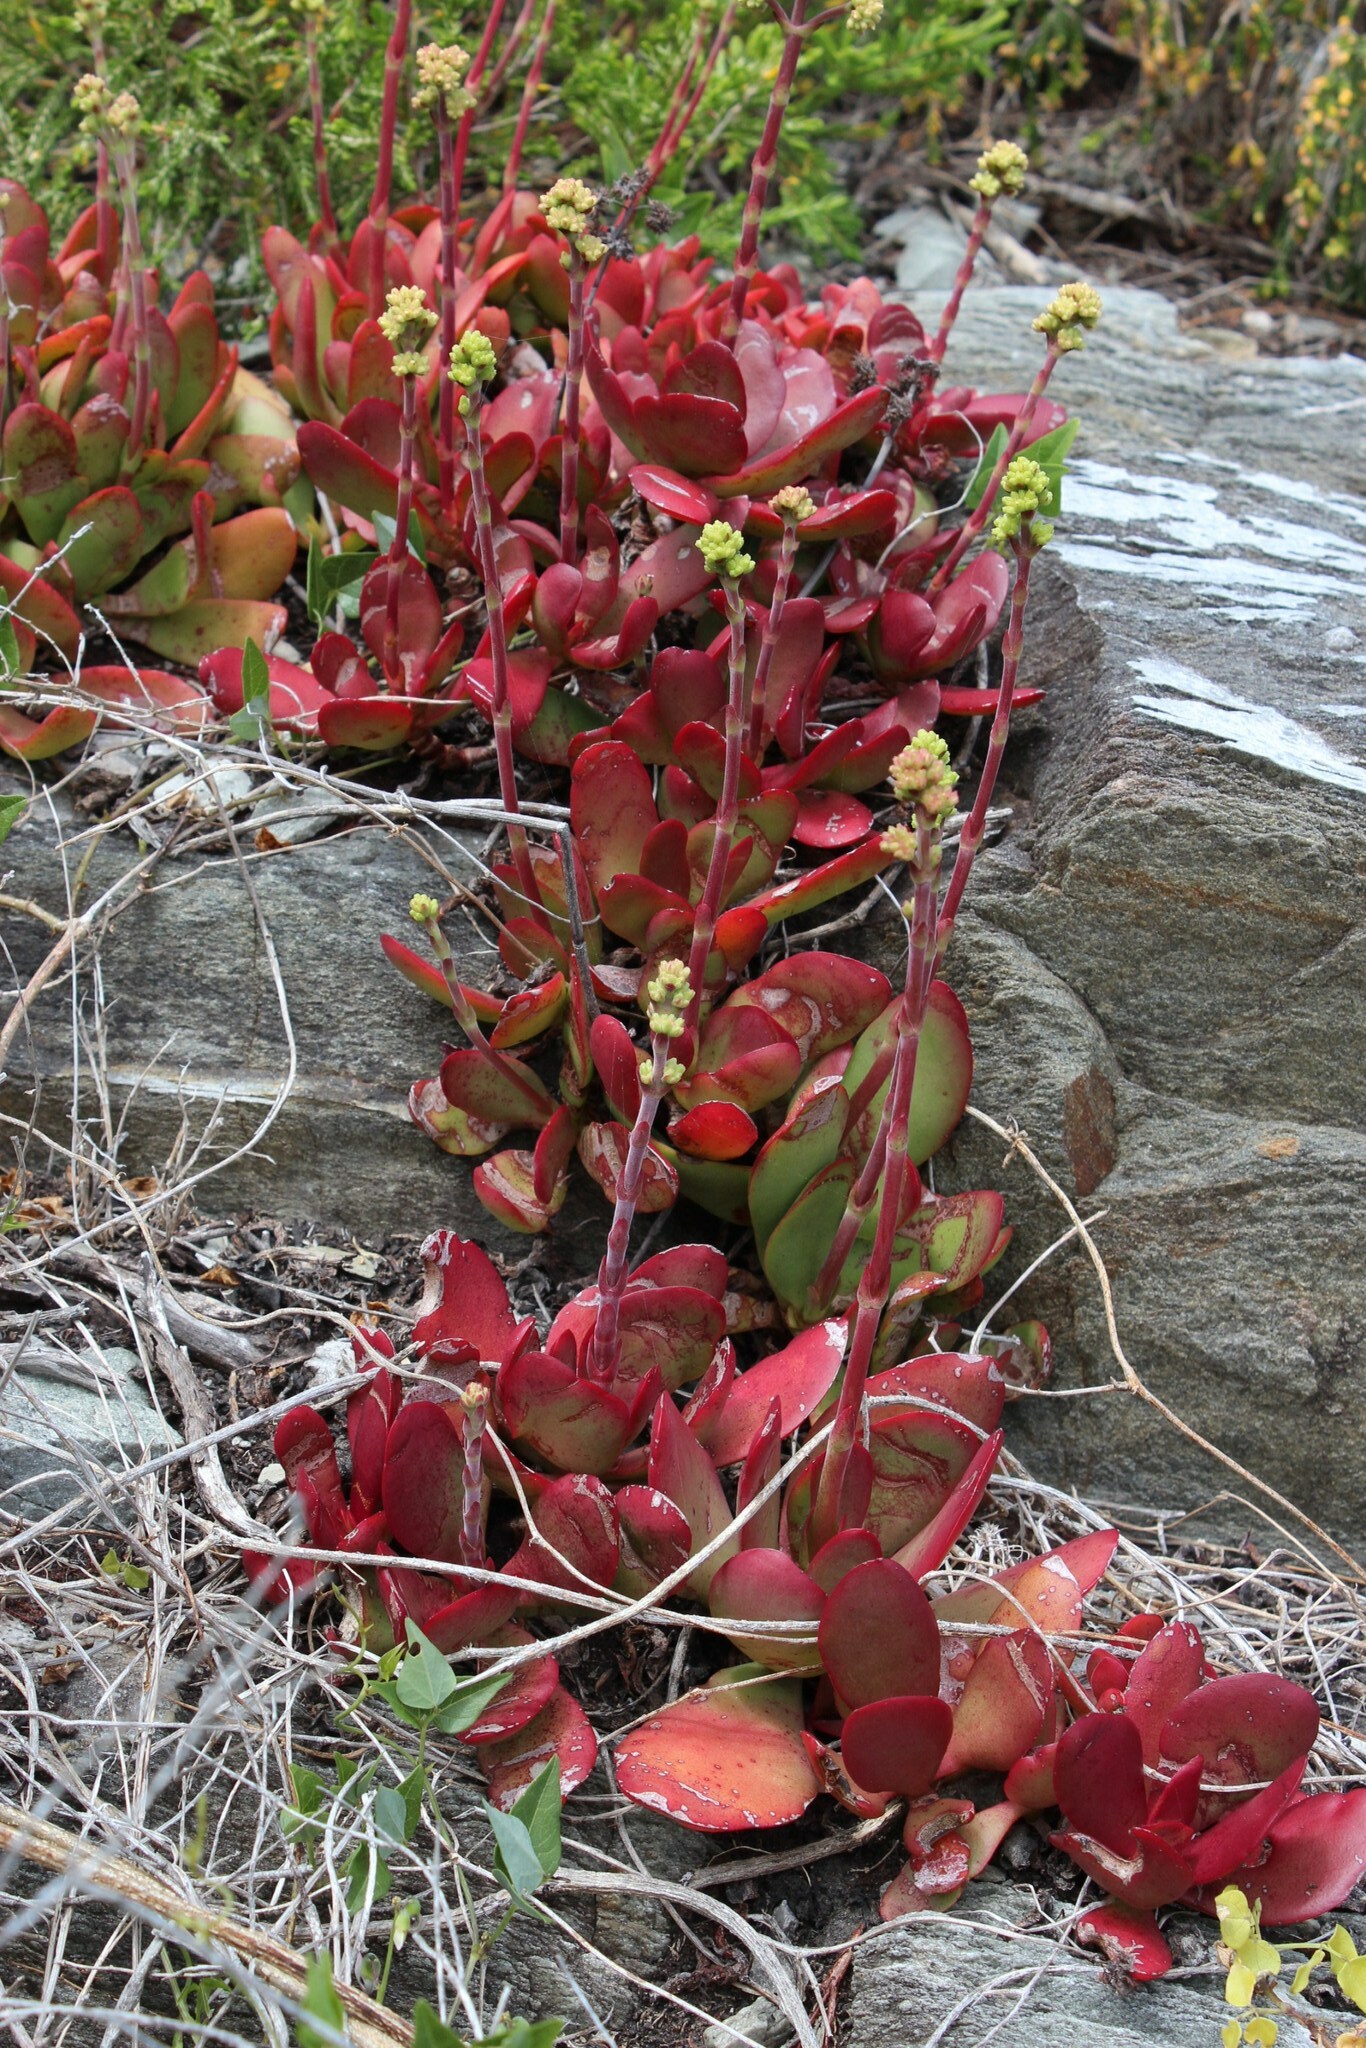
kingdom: Plantae
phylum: Tracheophyta
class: Magnoliopsida
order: Saxifragales
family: Crassulaceae
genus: Crassula
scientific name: Crassula atropurpurea
